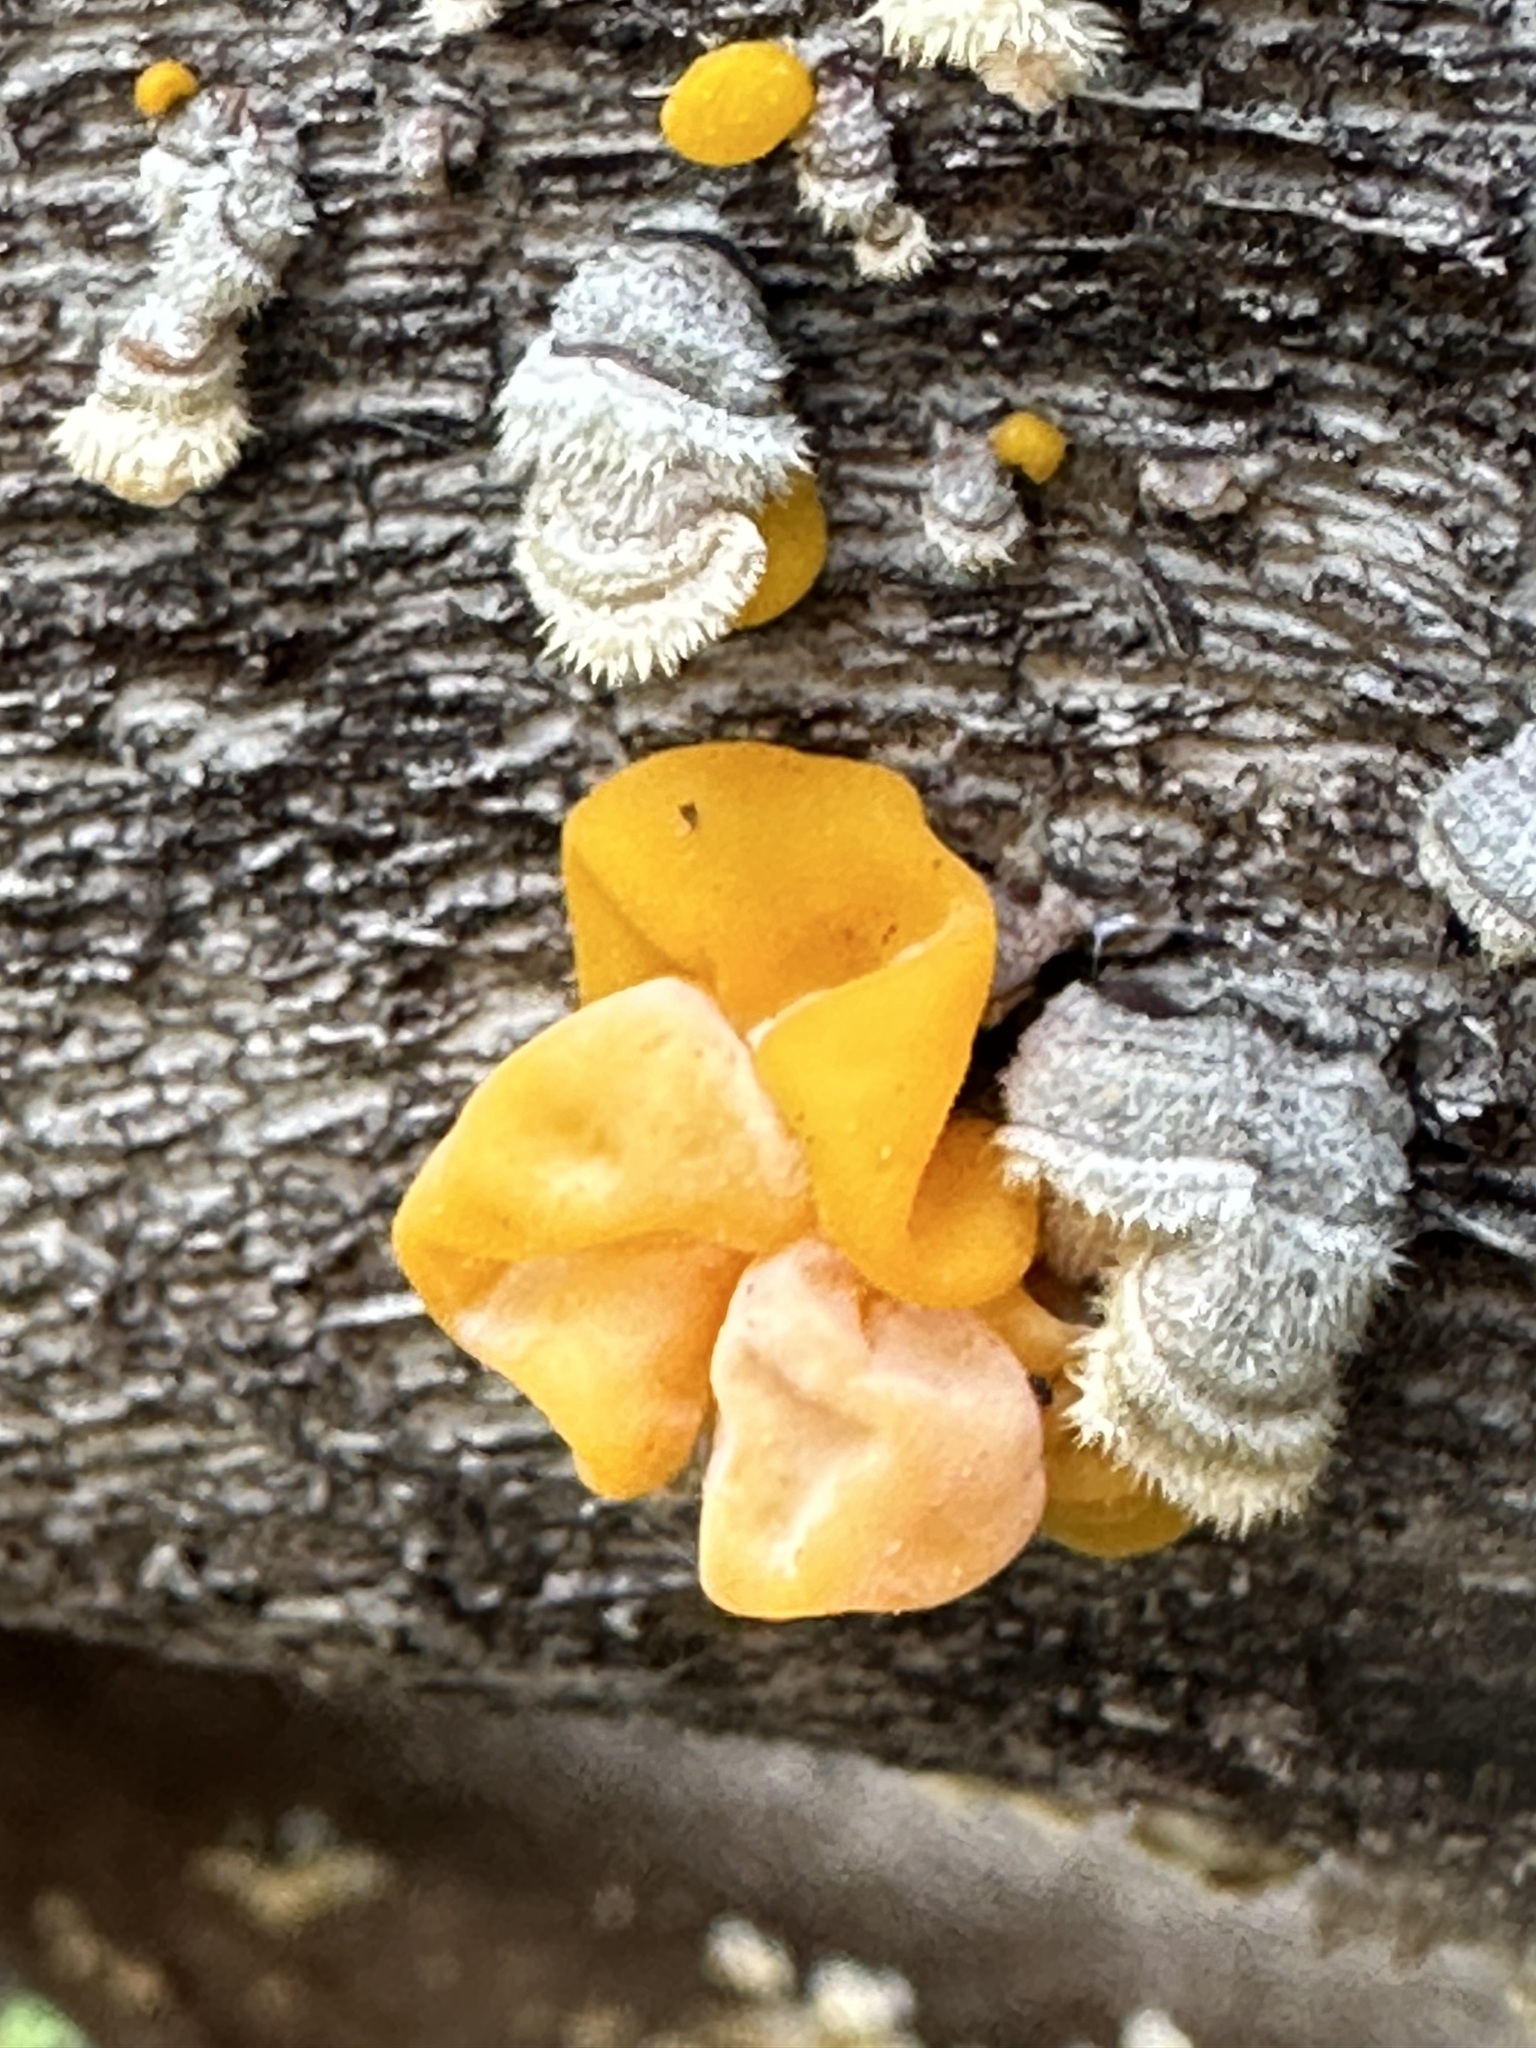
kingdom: Fungi
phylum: Basidiomycota
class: Tremellomycetes
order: Tremellales
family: Naemateliaceae
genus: Naematelia
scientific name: Naematelia aurantia
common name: Golden ear
